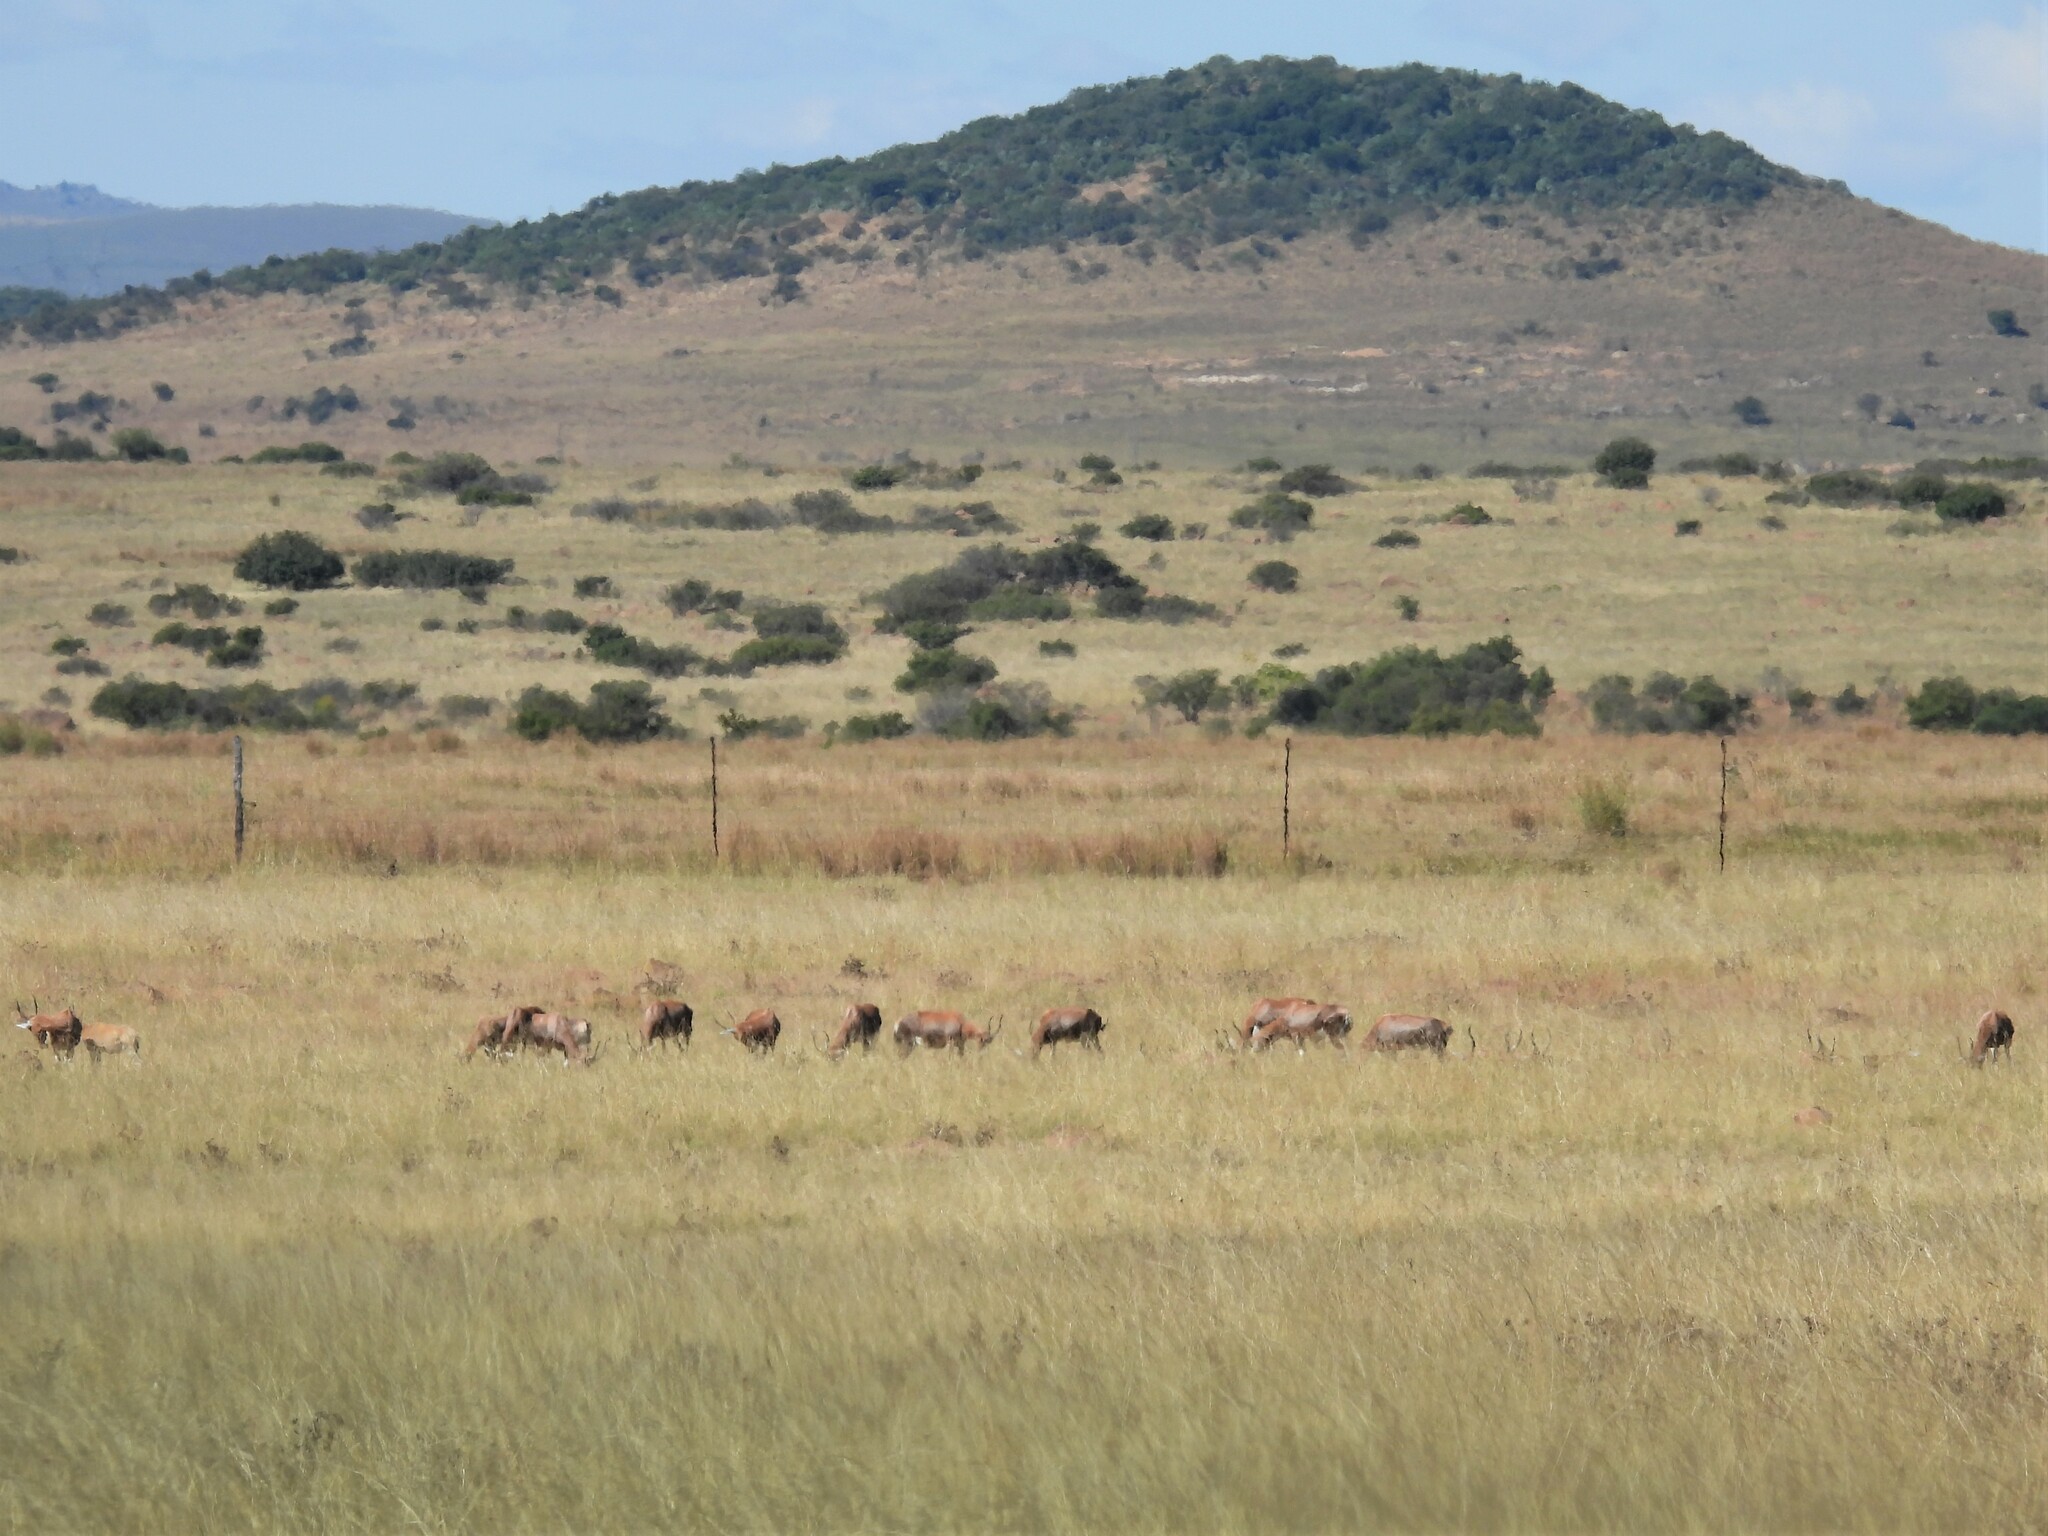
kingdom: Animalia
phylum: Chordata
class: Mammalia
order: Artiodactyla
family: Bovidae
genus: Damaliscus
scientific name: Damaliscus pygargus
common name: Bontebok
